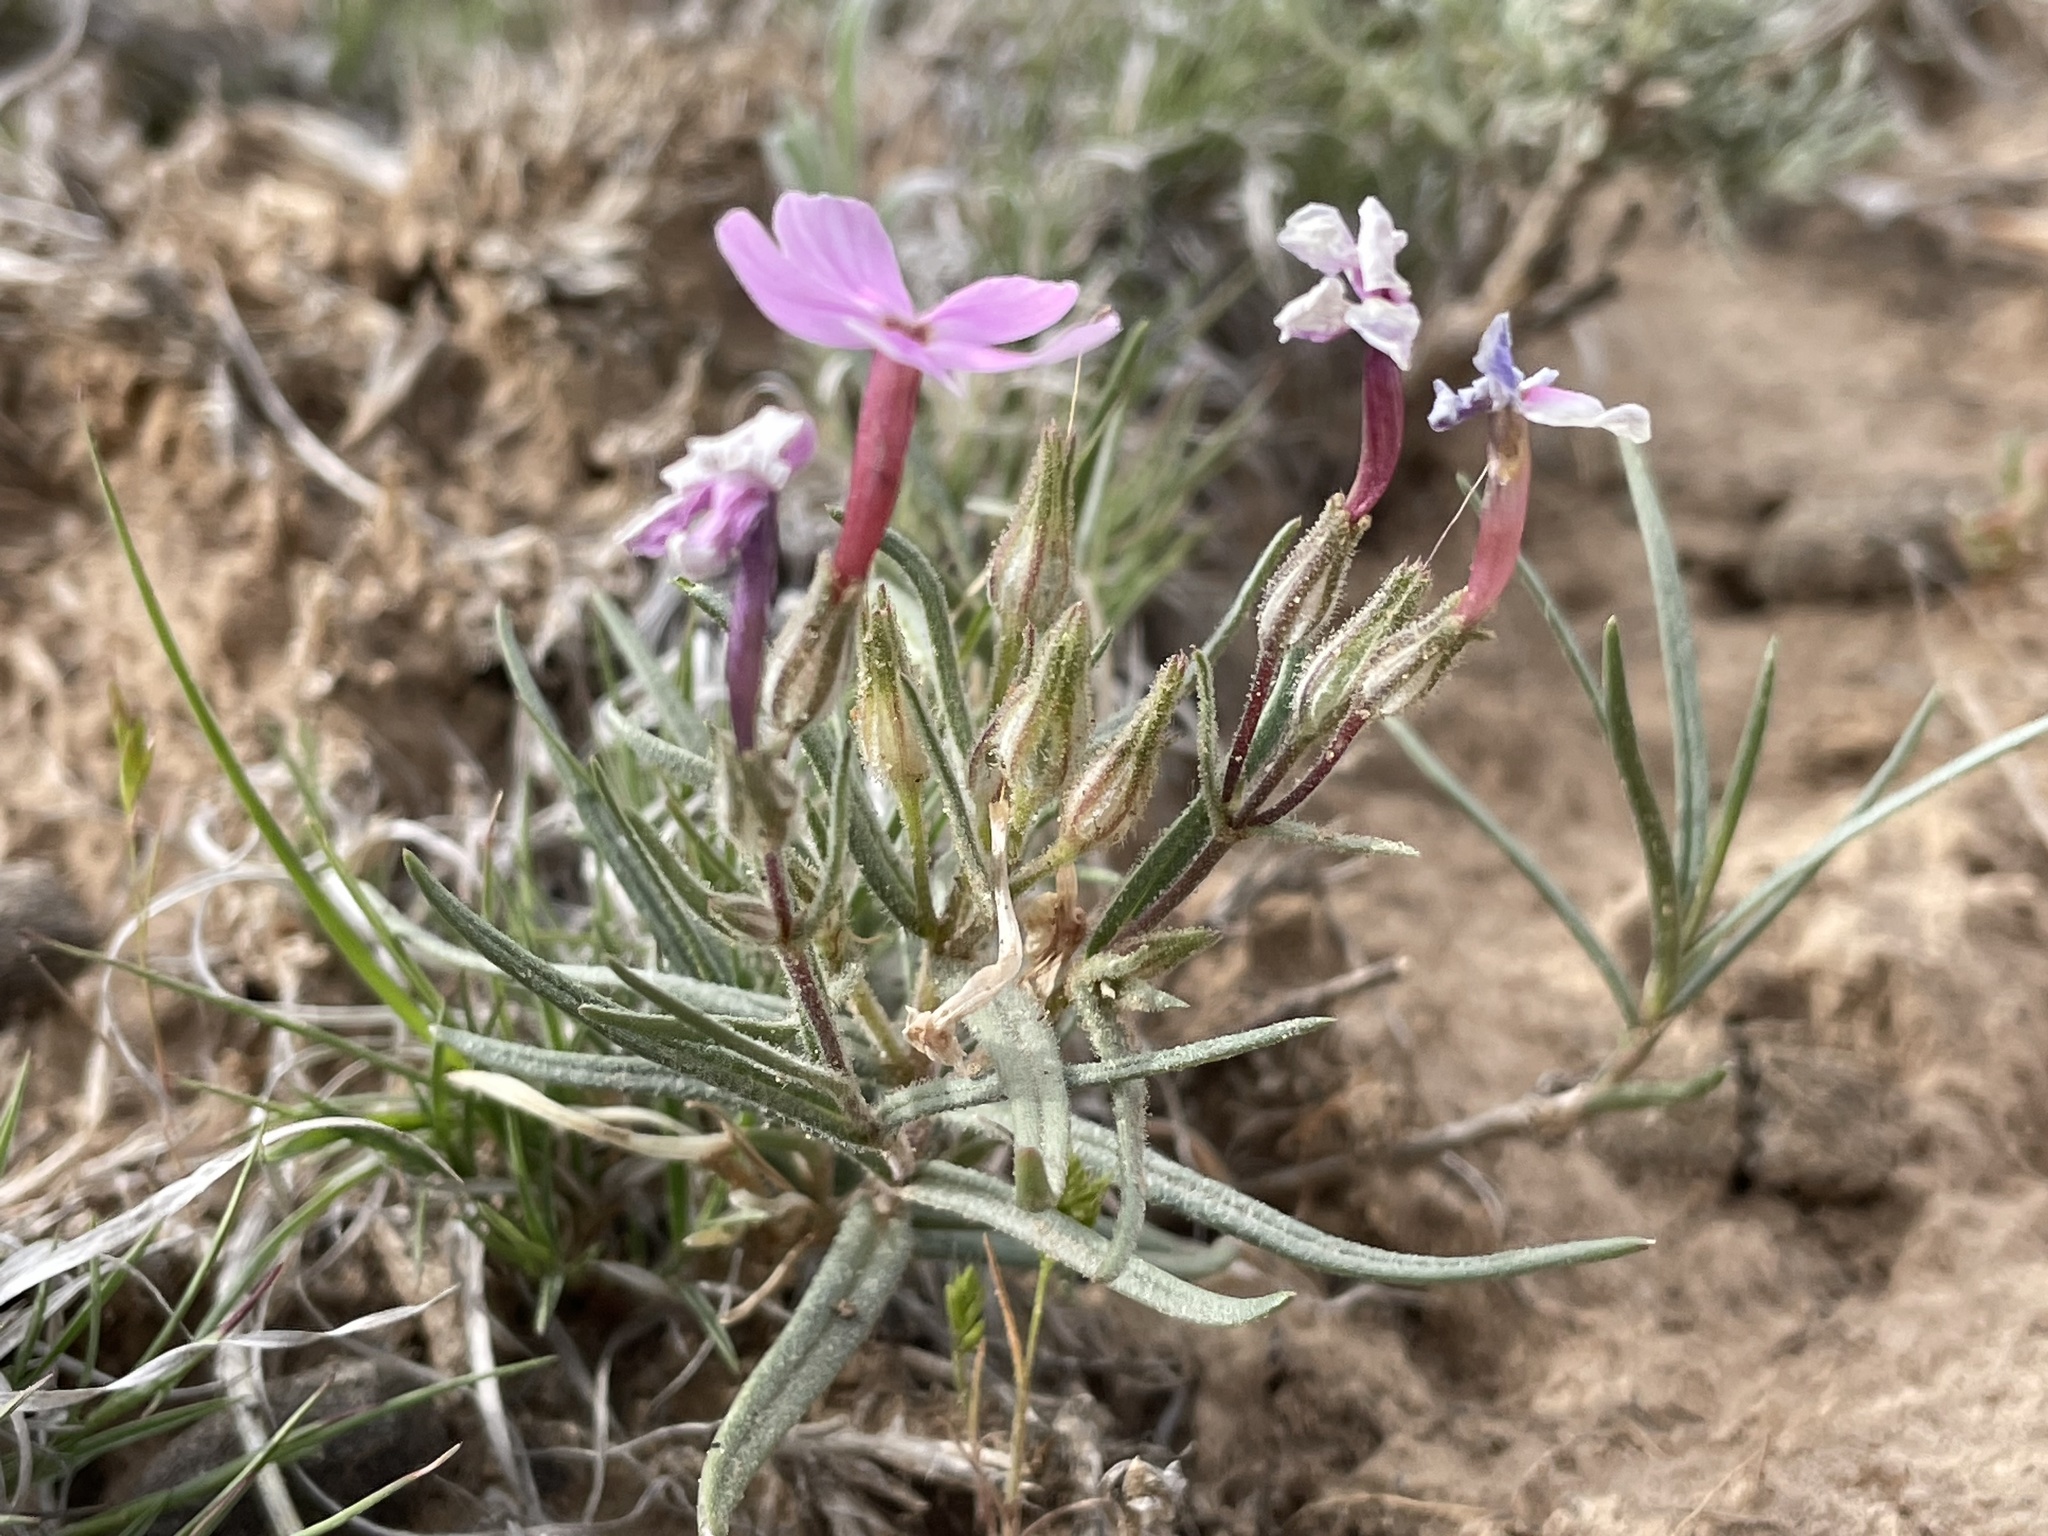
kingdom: Plantae
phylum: Tracheophyta
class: Magnoliopsida
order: Ericales
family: Polemoniaceae
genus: Phlox
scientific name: Phlox longifolia
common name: Longleaf phlox
